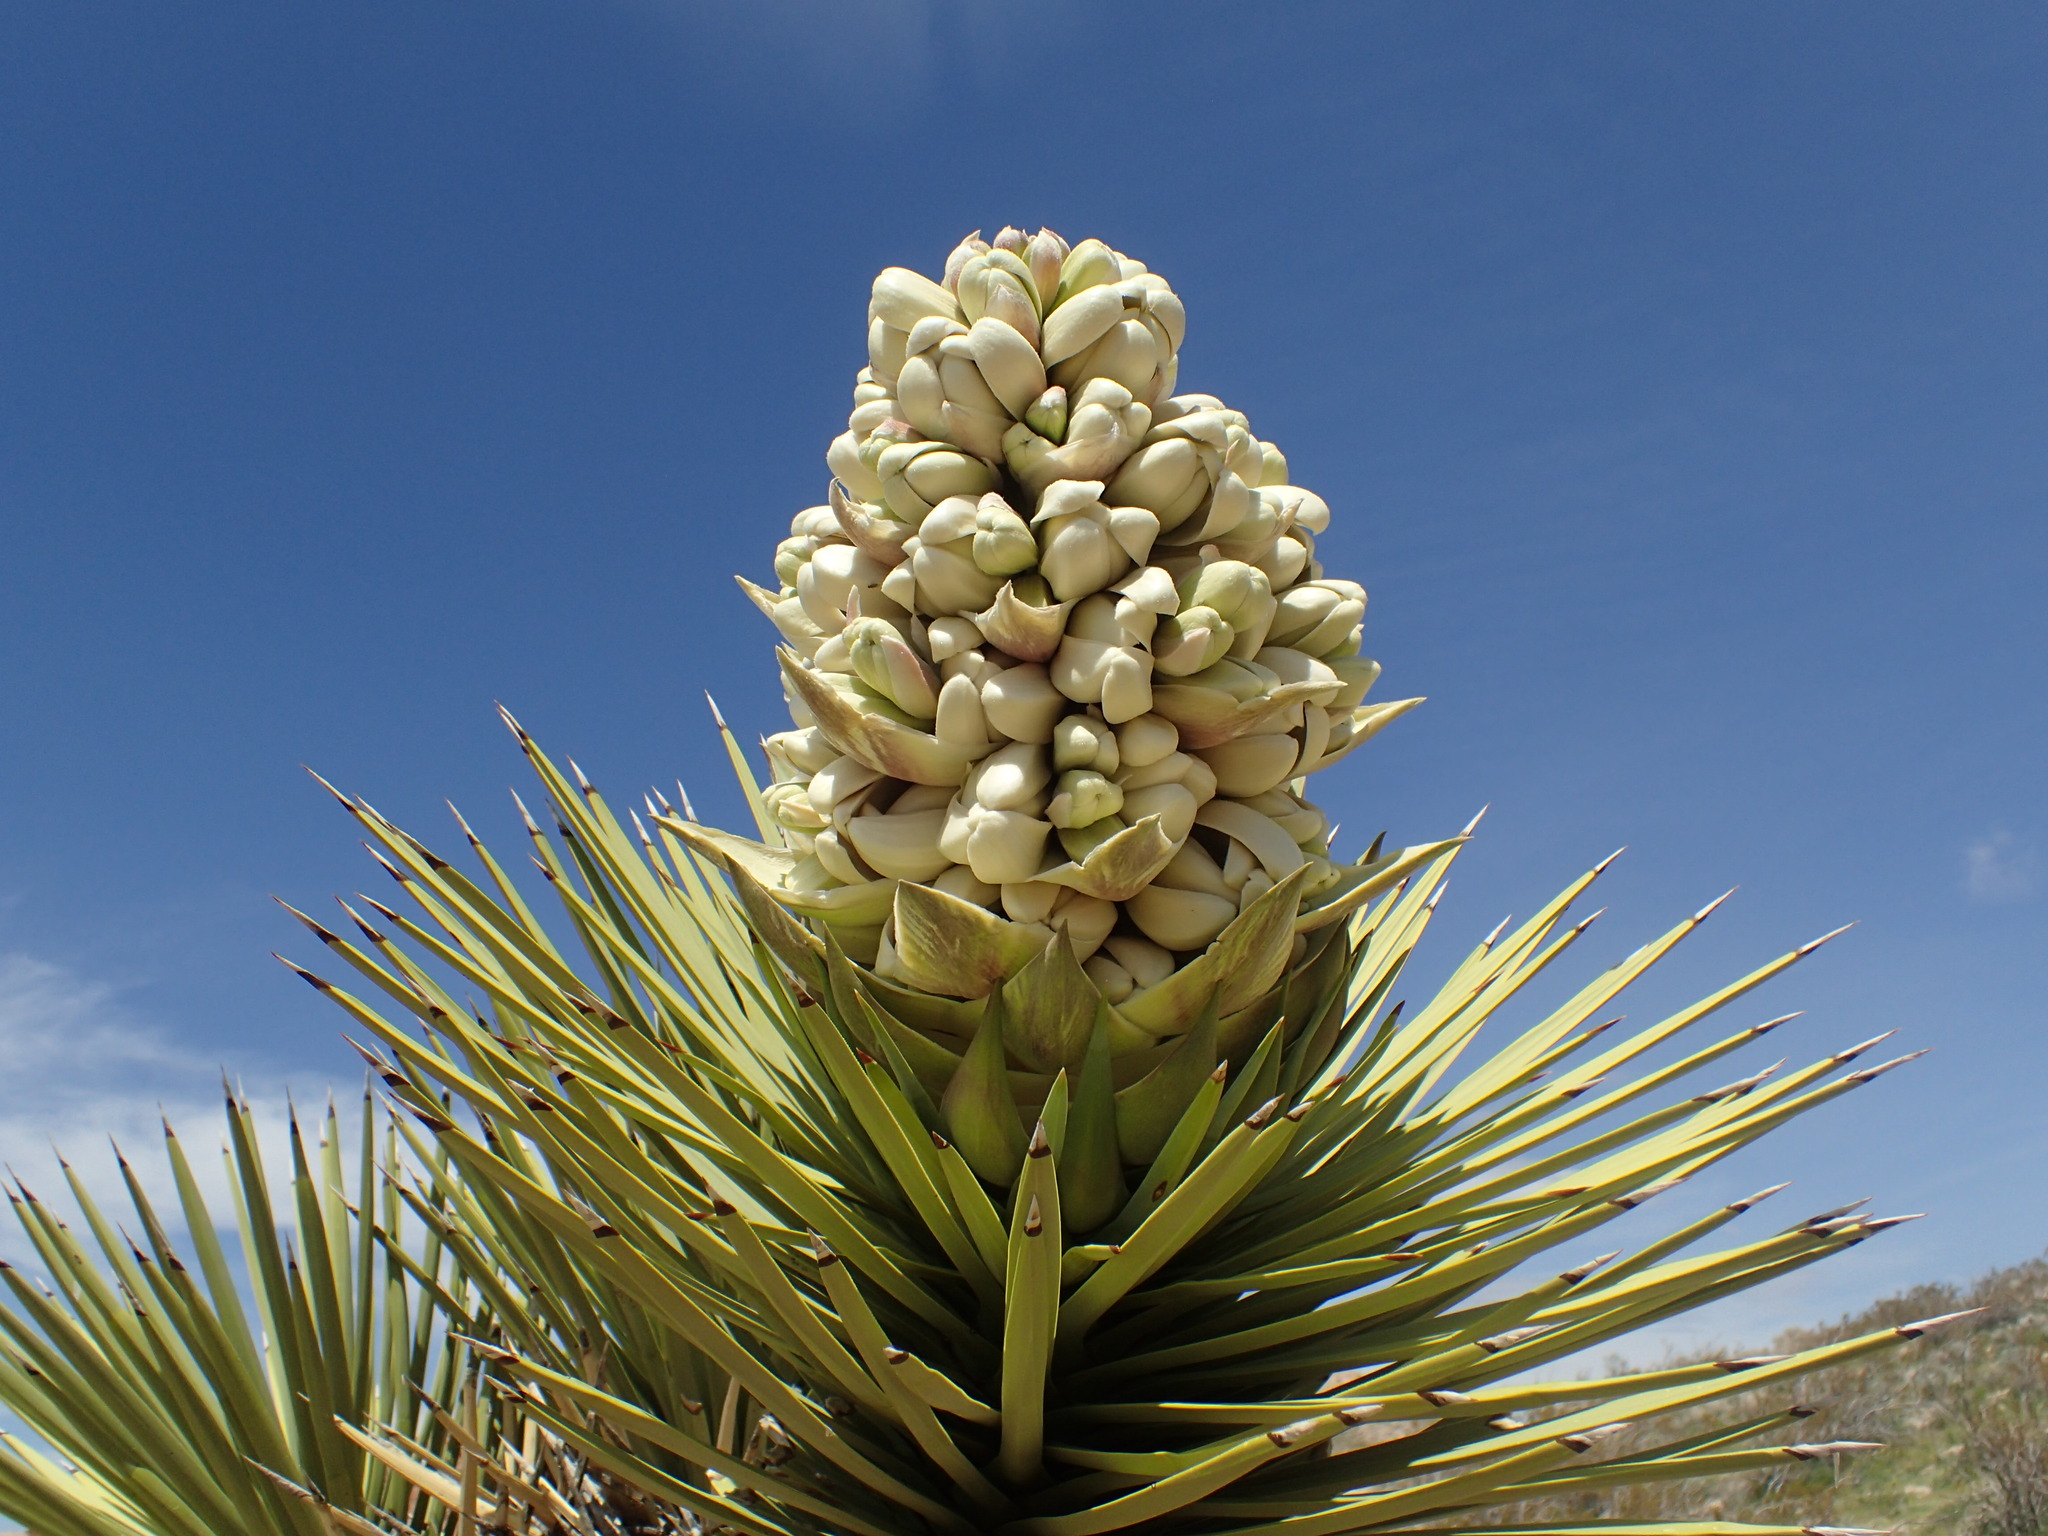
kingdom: Plantae
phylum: Tracheophyta
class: Liliopsida
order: Asparagales
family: Asparagaceae
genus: Yucca
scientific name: Yucca brevifolia
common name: Joshua tree
